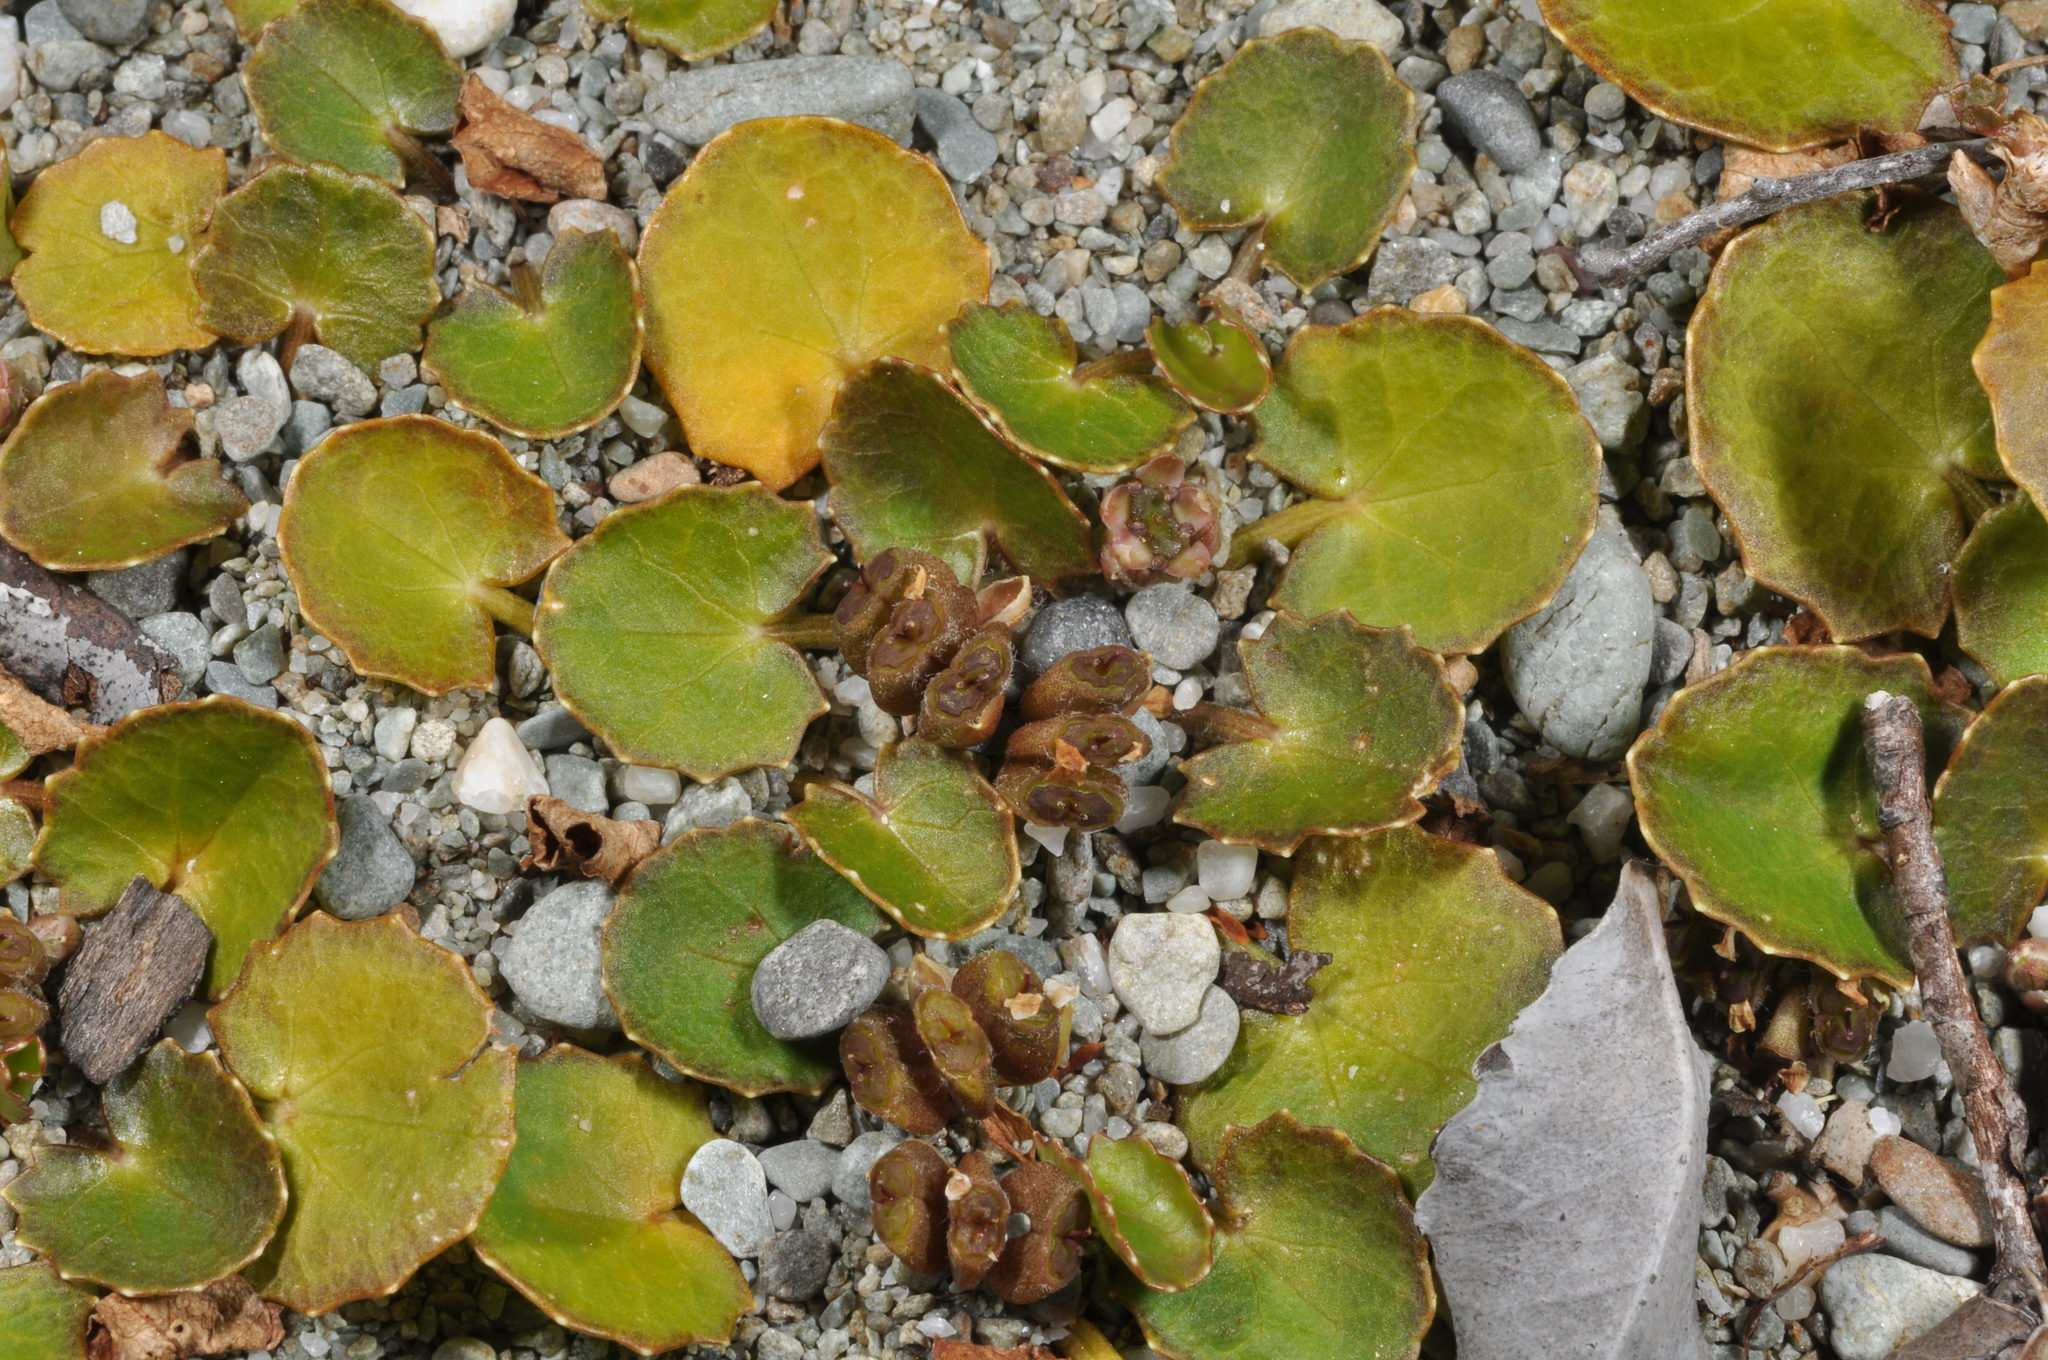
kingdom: Plantae
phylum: Tracheophyta
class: Magnoliopsida
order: Apiales
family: Apiaceae
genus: Centella
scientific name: Centella uniflora
